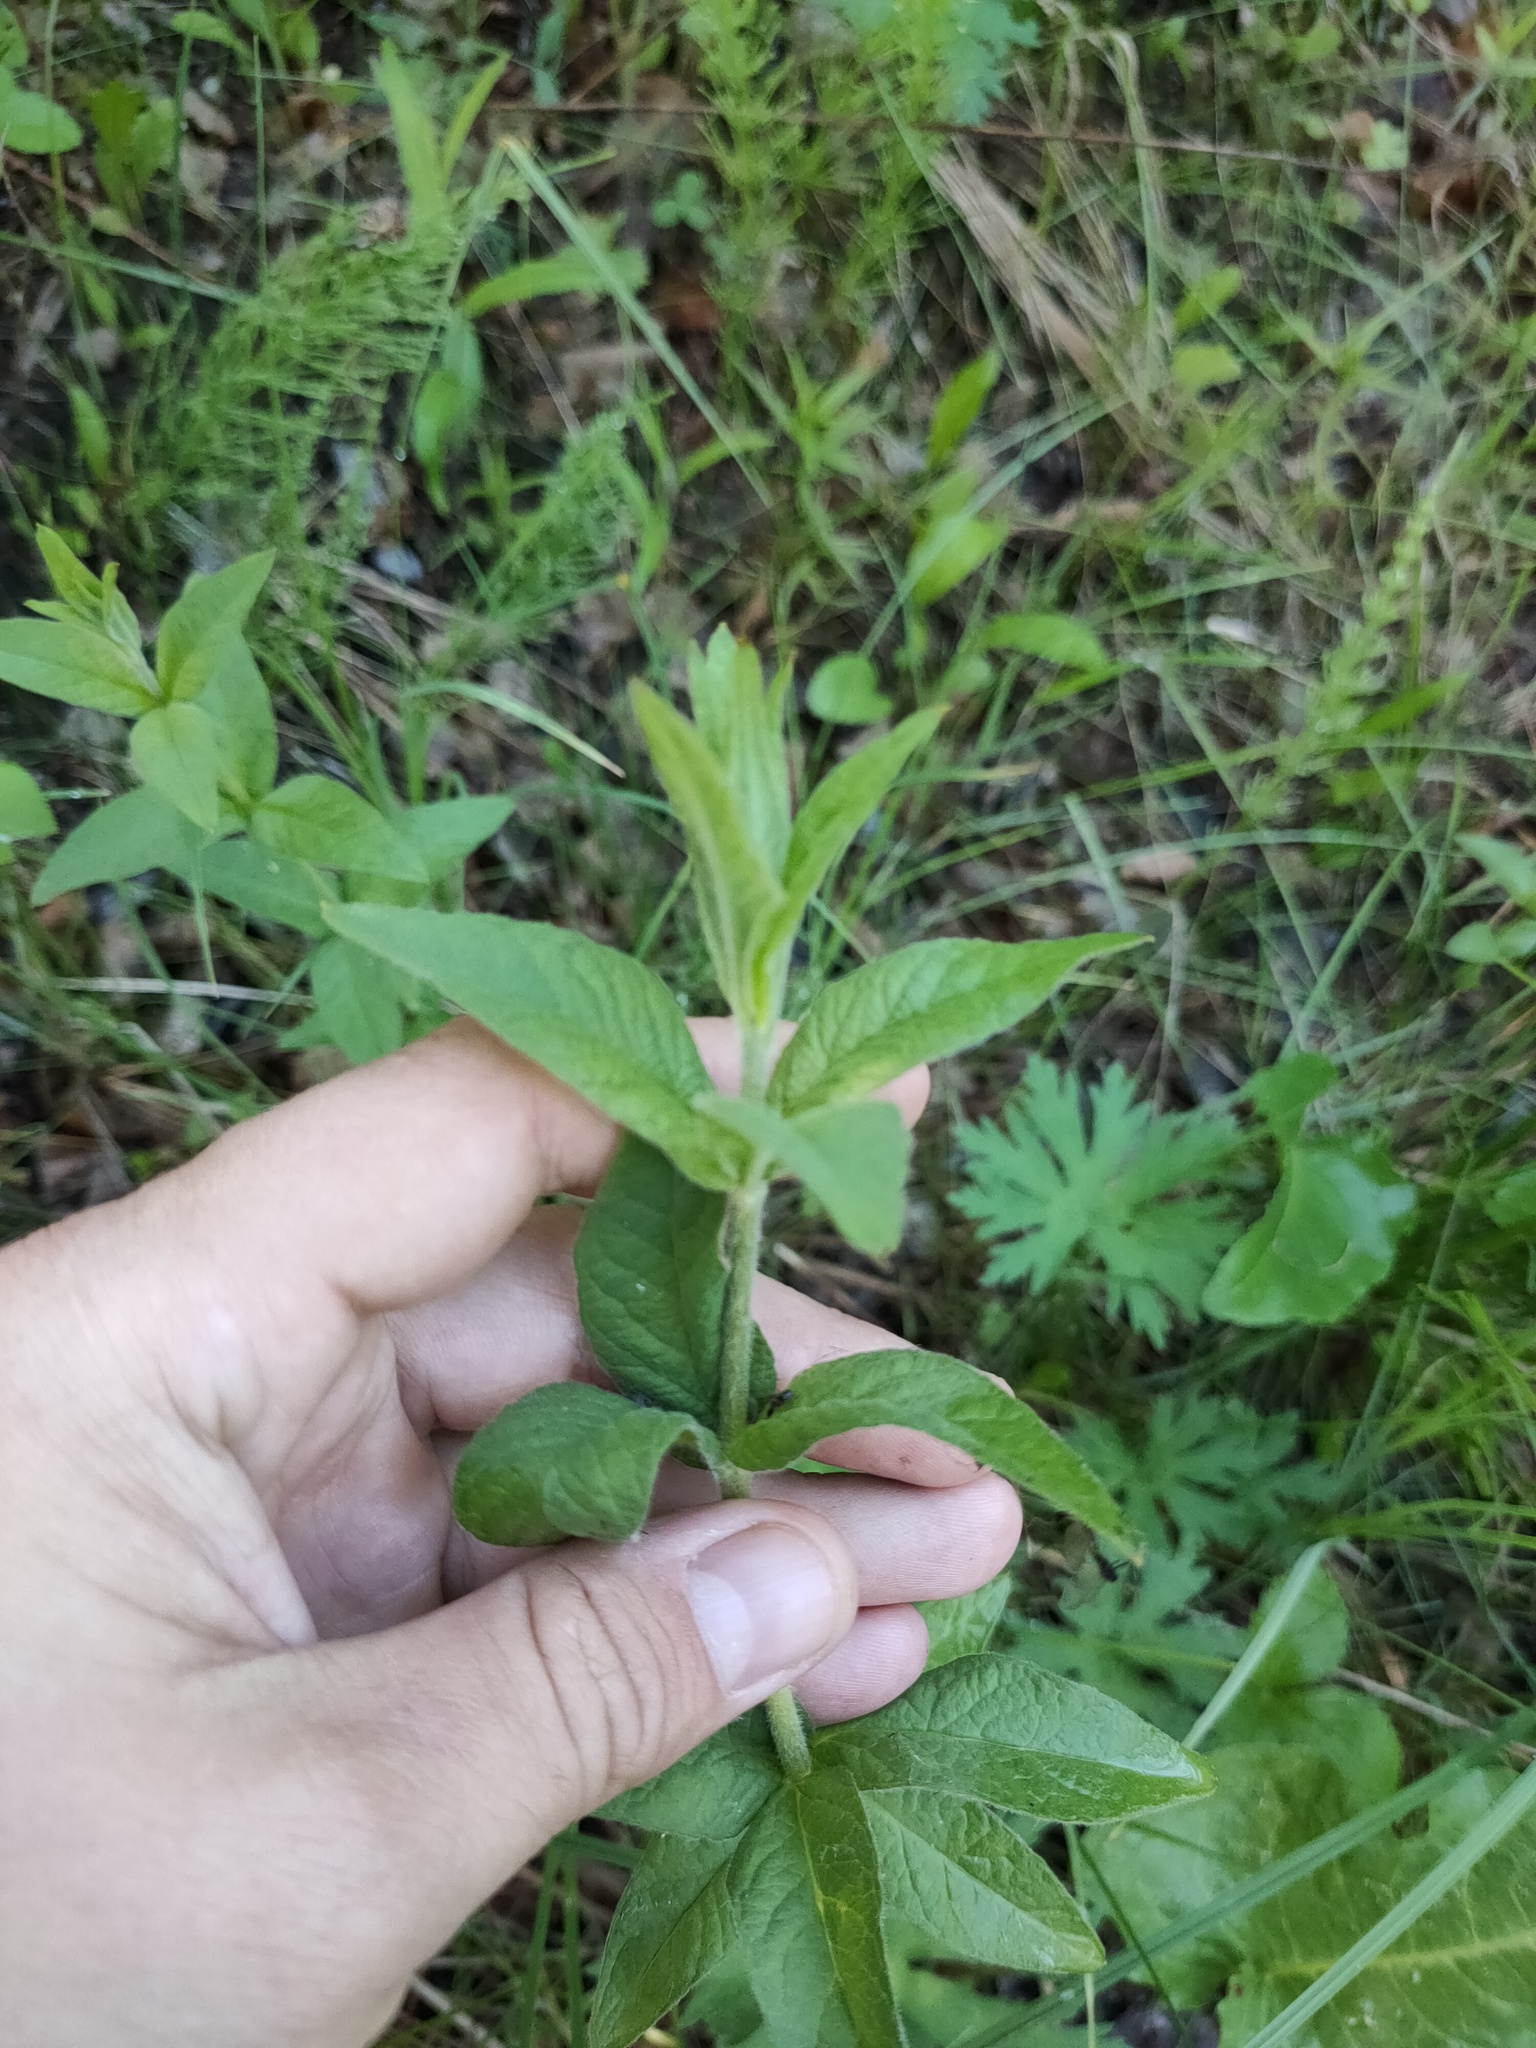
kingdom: Plantae
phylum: Tracheophyta
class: Magnoliopsida
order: Ericales
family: Primulaceae
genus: Lysimachia
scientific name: Lysimachia vulgaris
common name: Yellow loosestrife
